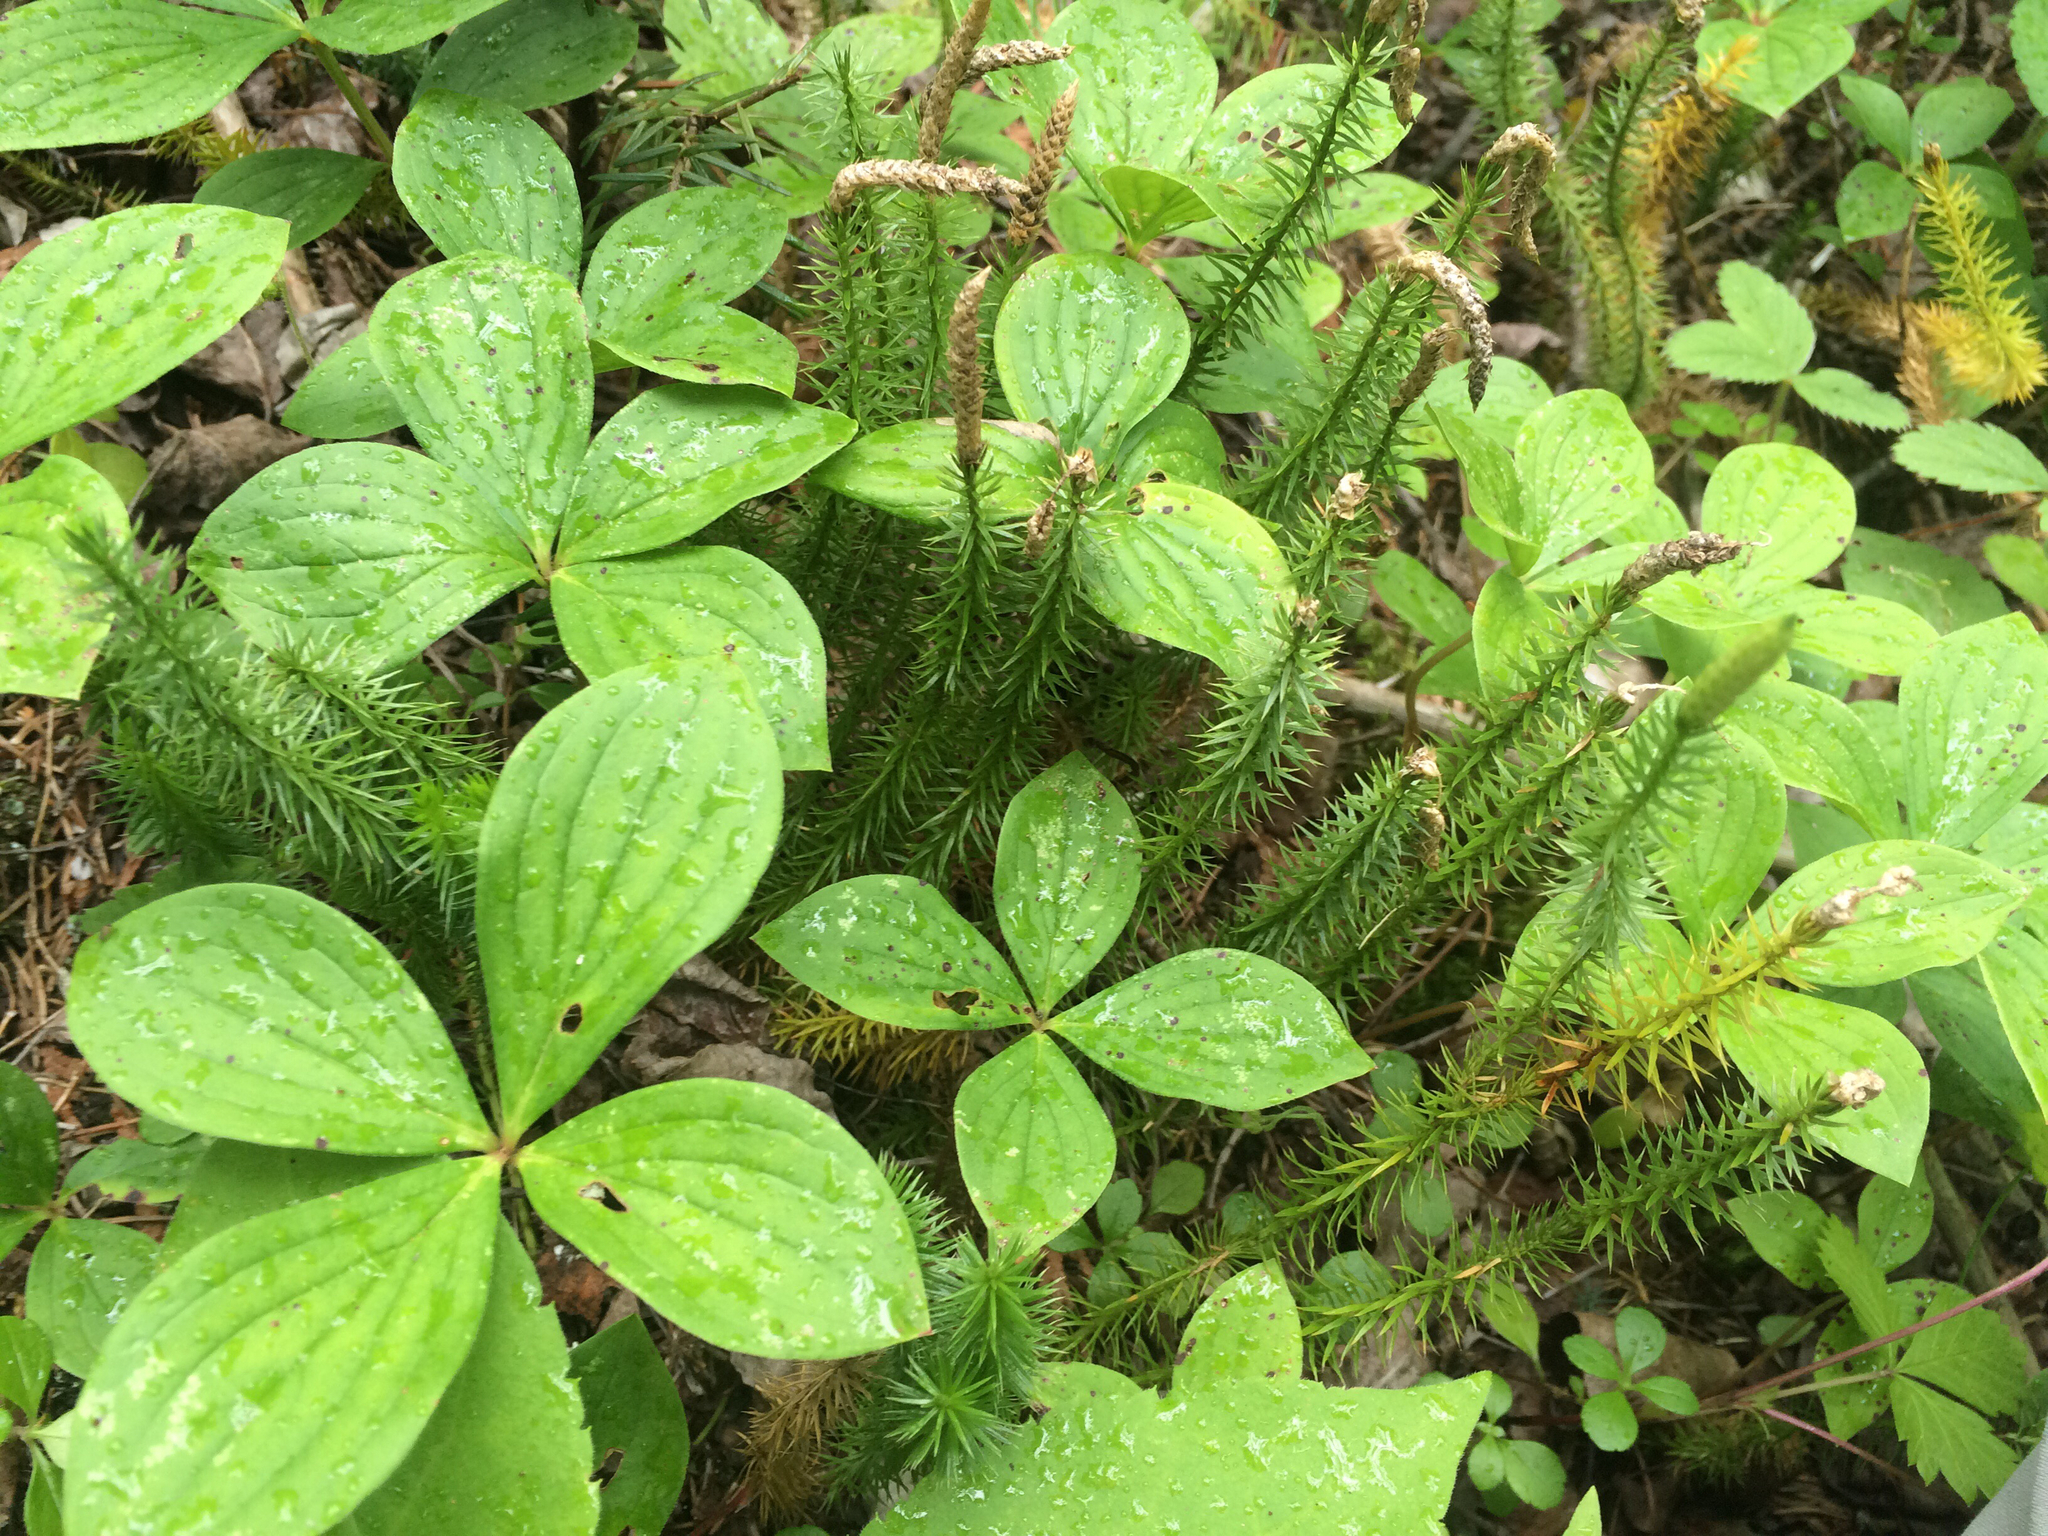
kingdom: Plantae
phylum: Tracheophyta
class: Lycopodiopsida
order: Lycopodiales
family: Lycopodiaceae
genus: Spinulum
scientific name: Spinulum annotinum
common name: Interrupted club-moss
